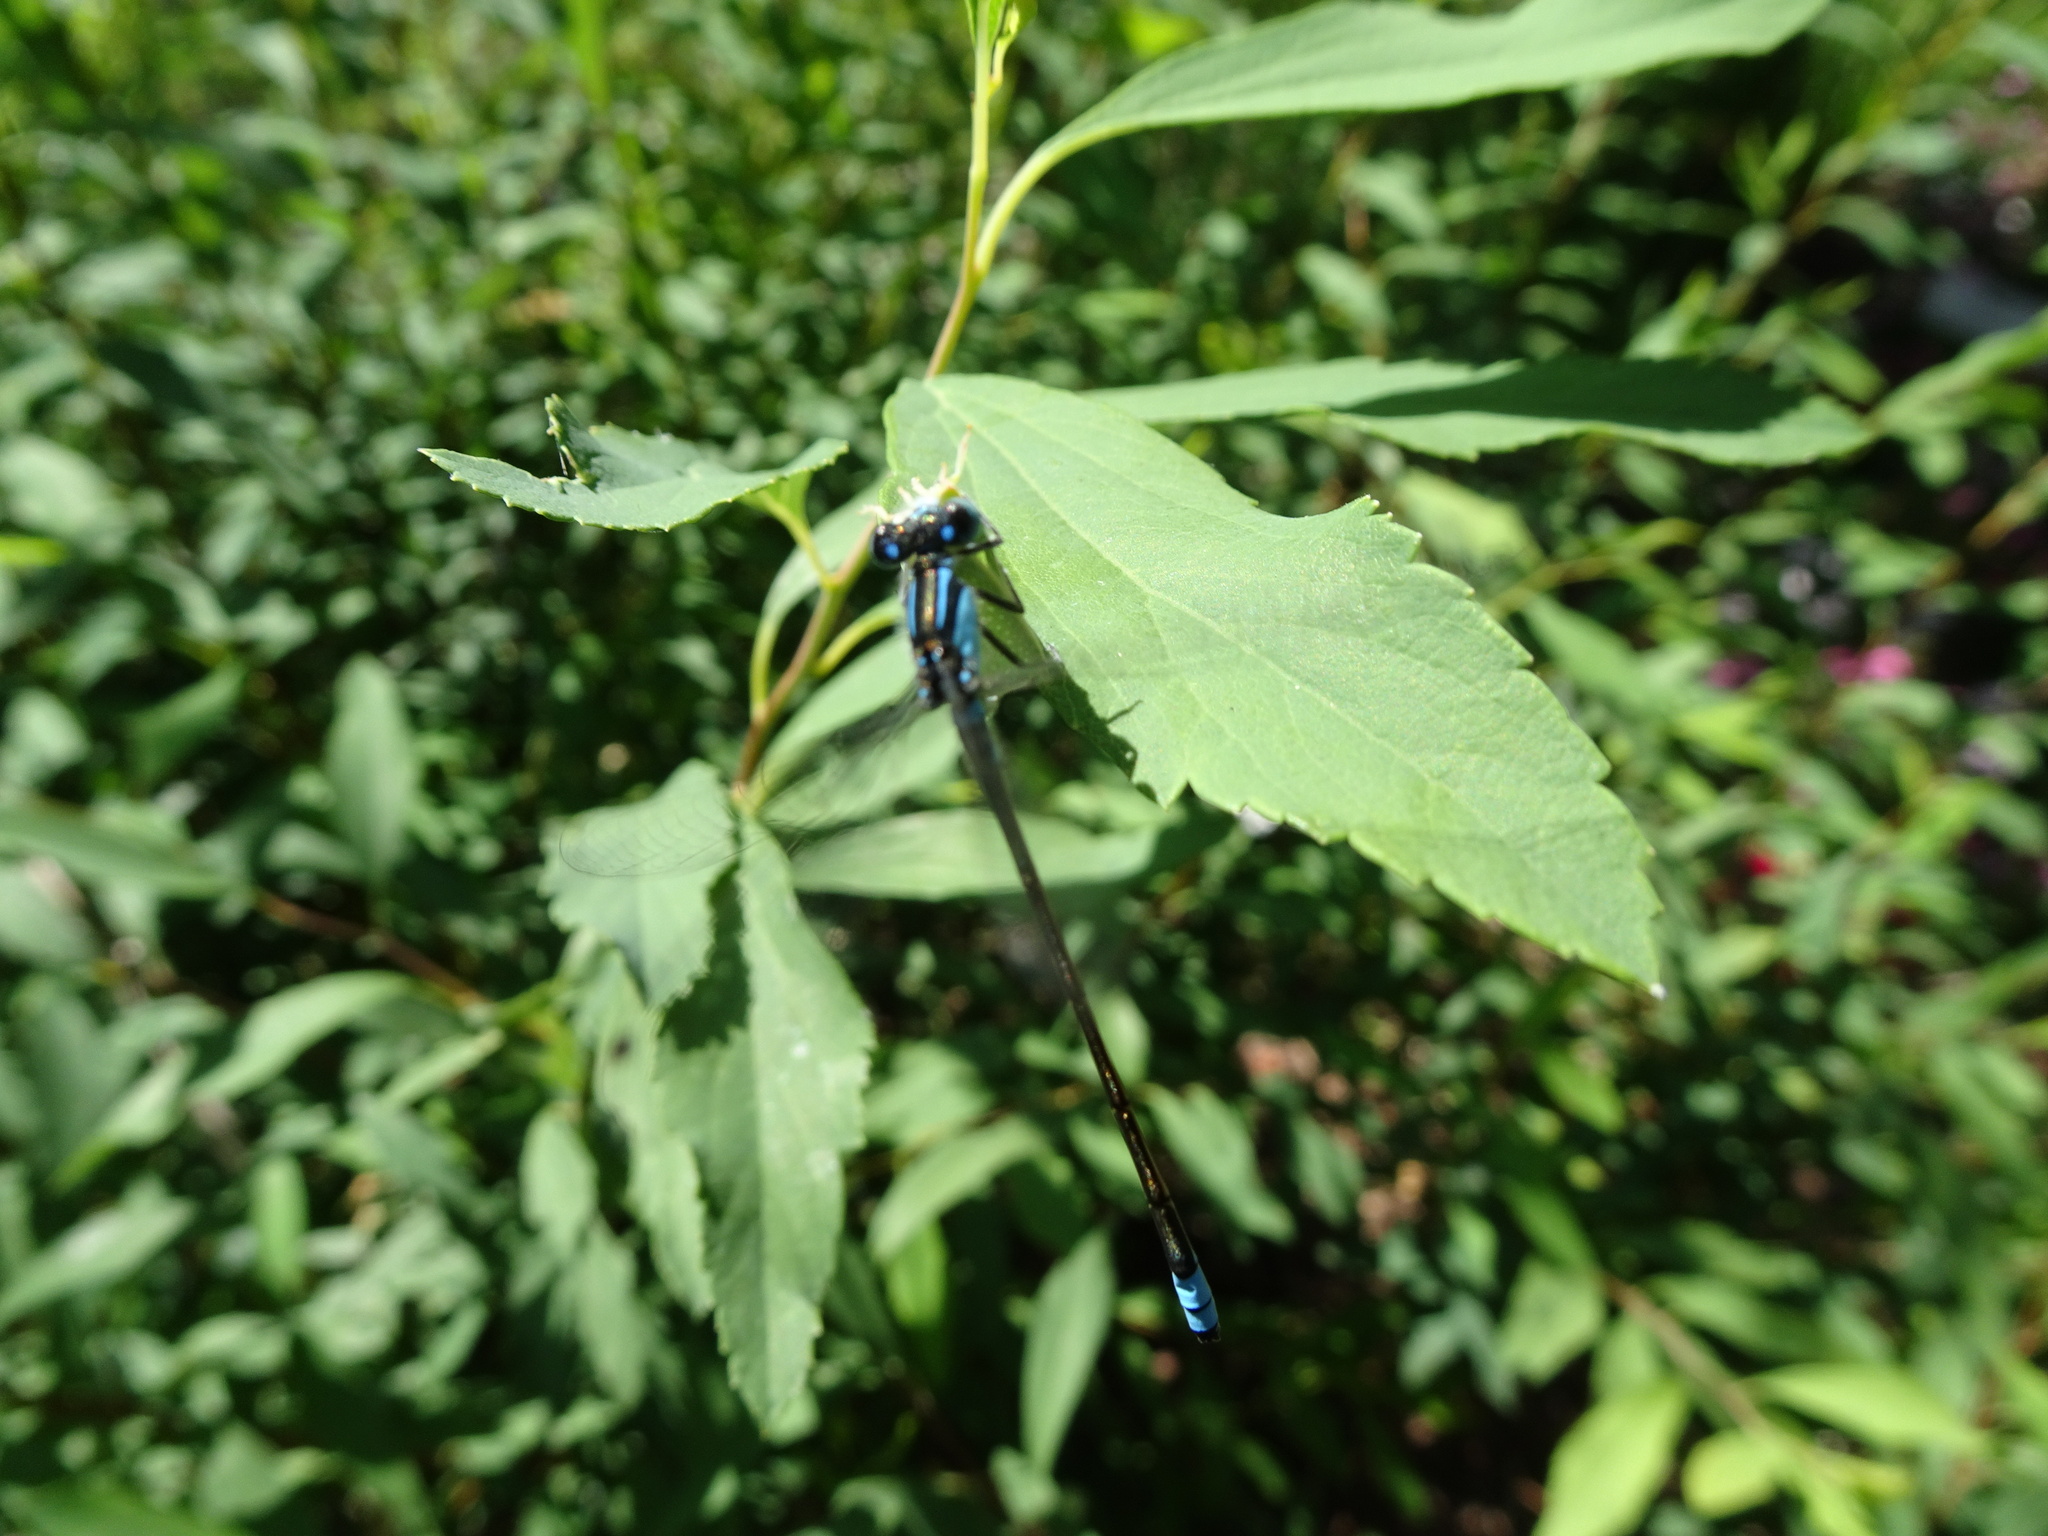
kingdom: Animalia
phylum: Arthropoda
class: Insecta
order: Odonata
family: Coenagrionidae
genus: Ischnura
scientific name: Ischnura heterosticta
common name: Common bluetail
